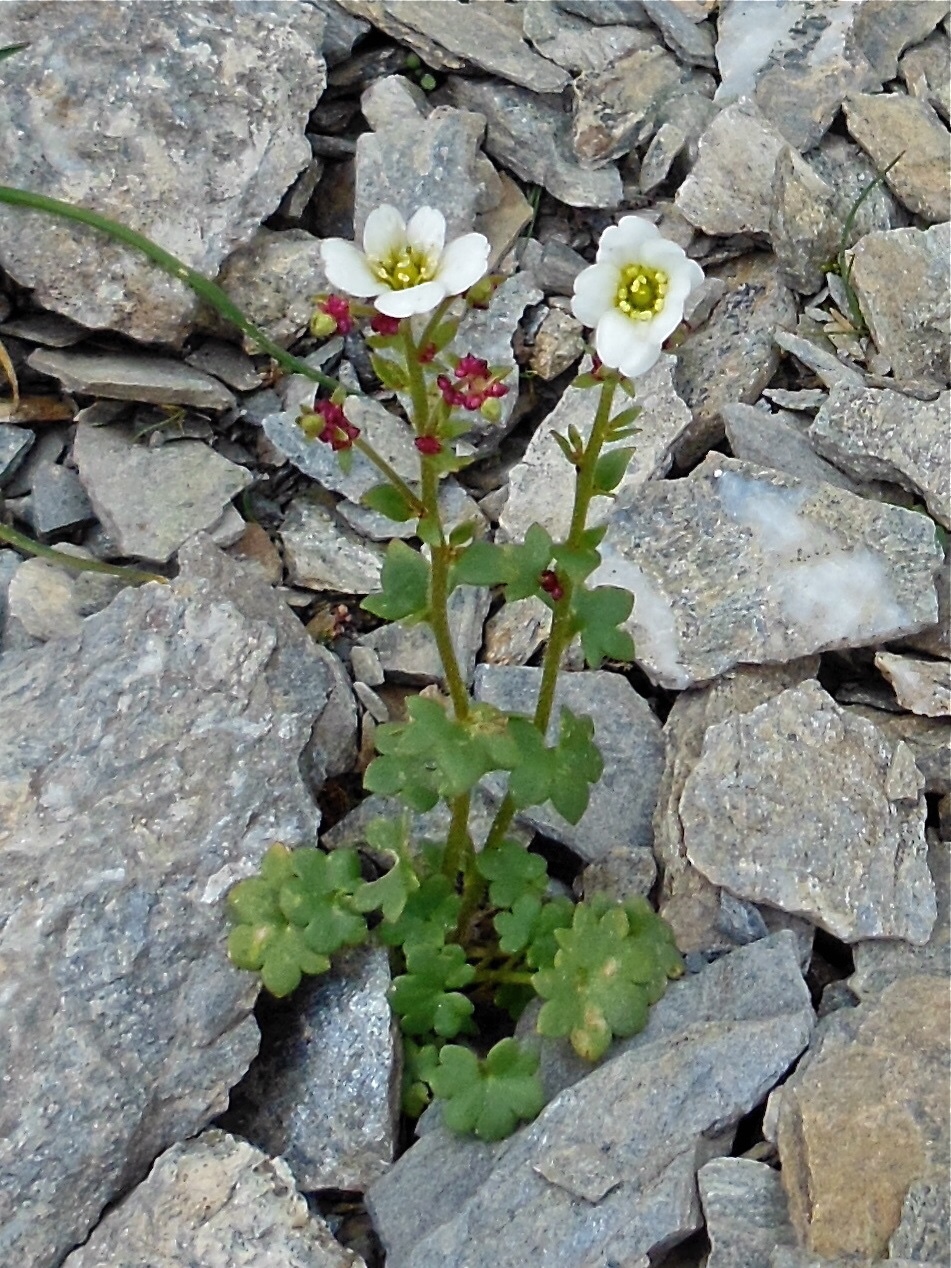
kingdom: Plantae
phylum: Tracheophyta
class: Magnoliopsida
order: Saxifragales
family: Saxifragaceae
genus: Saxifraga
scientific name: Saxifraga cernua
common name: Drooping saxifrage
